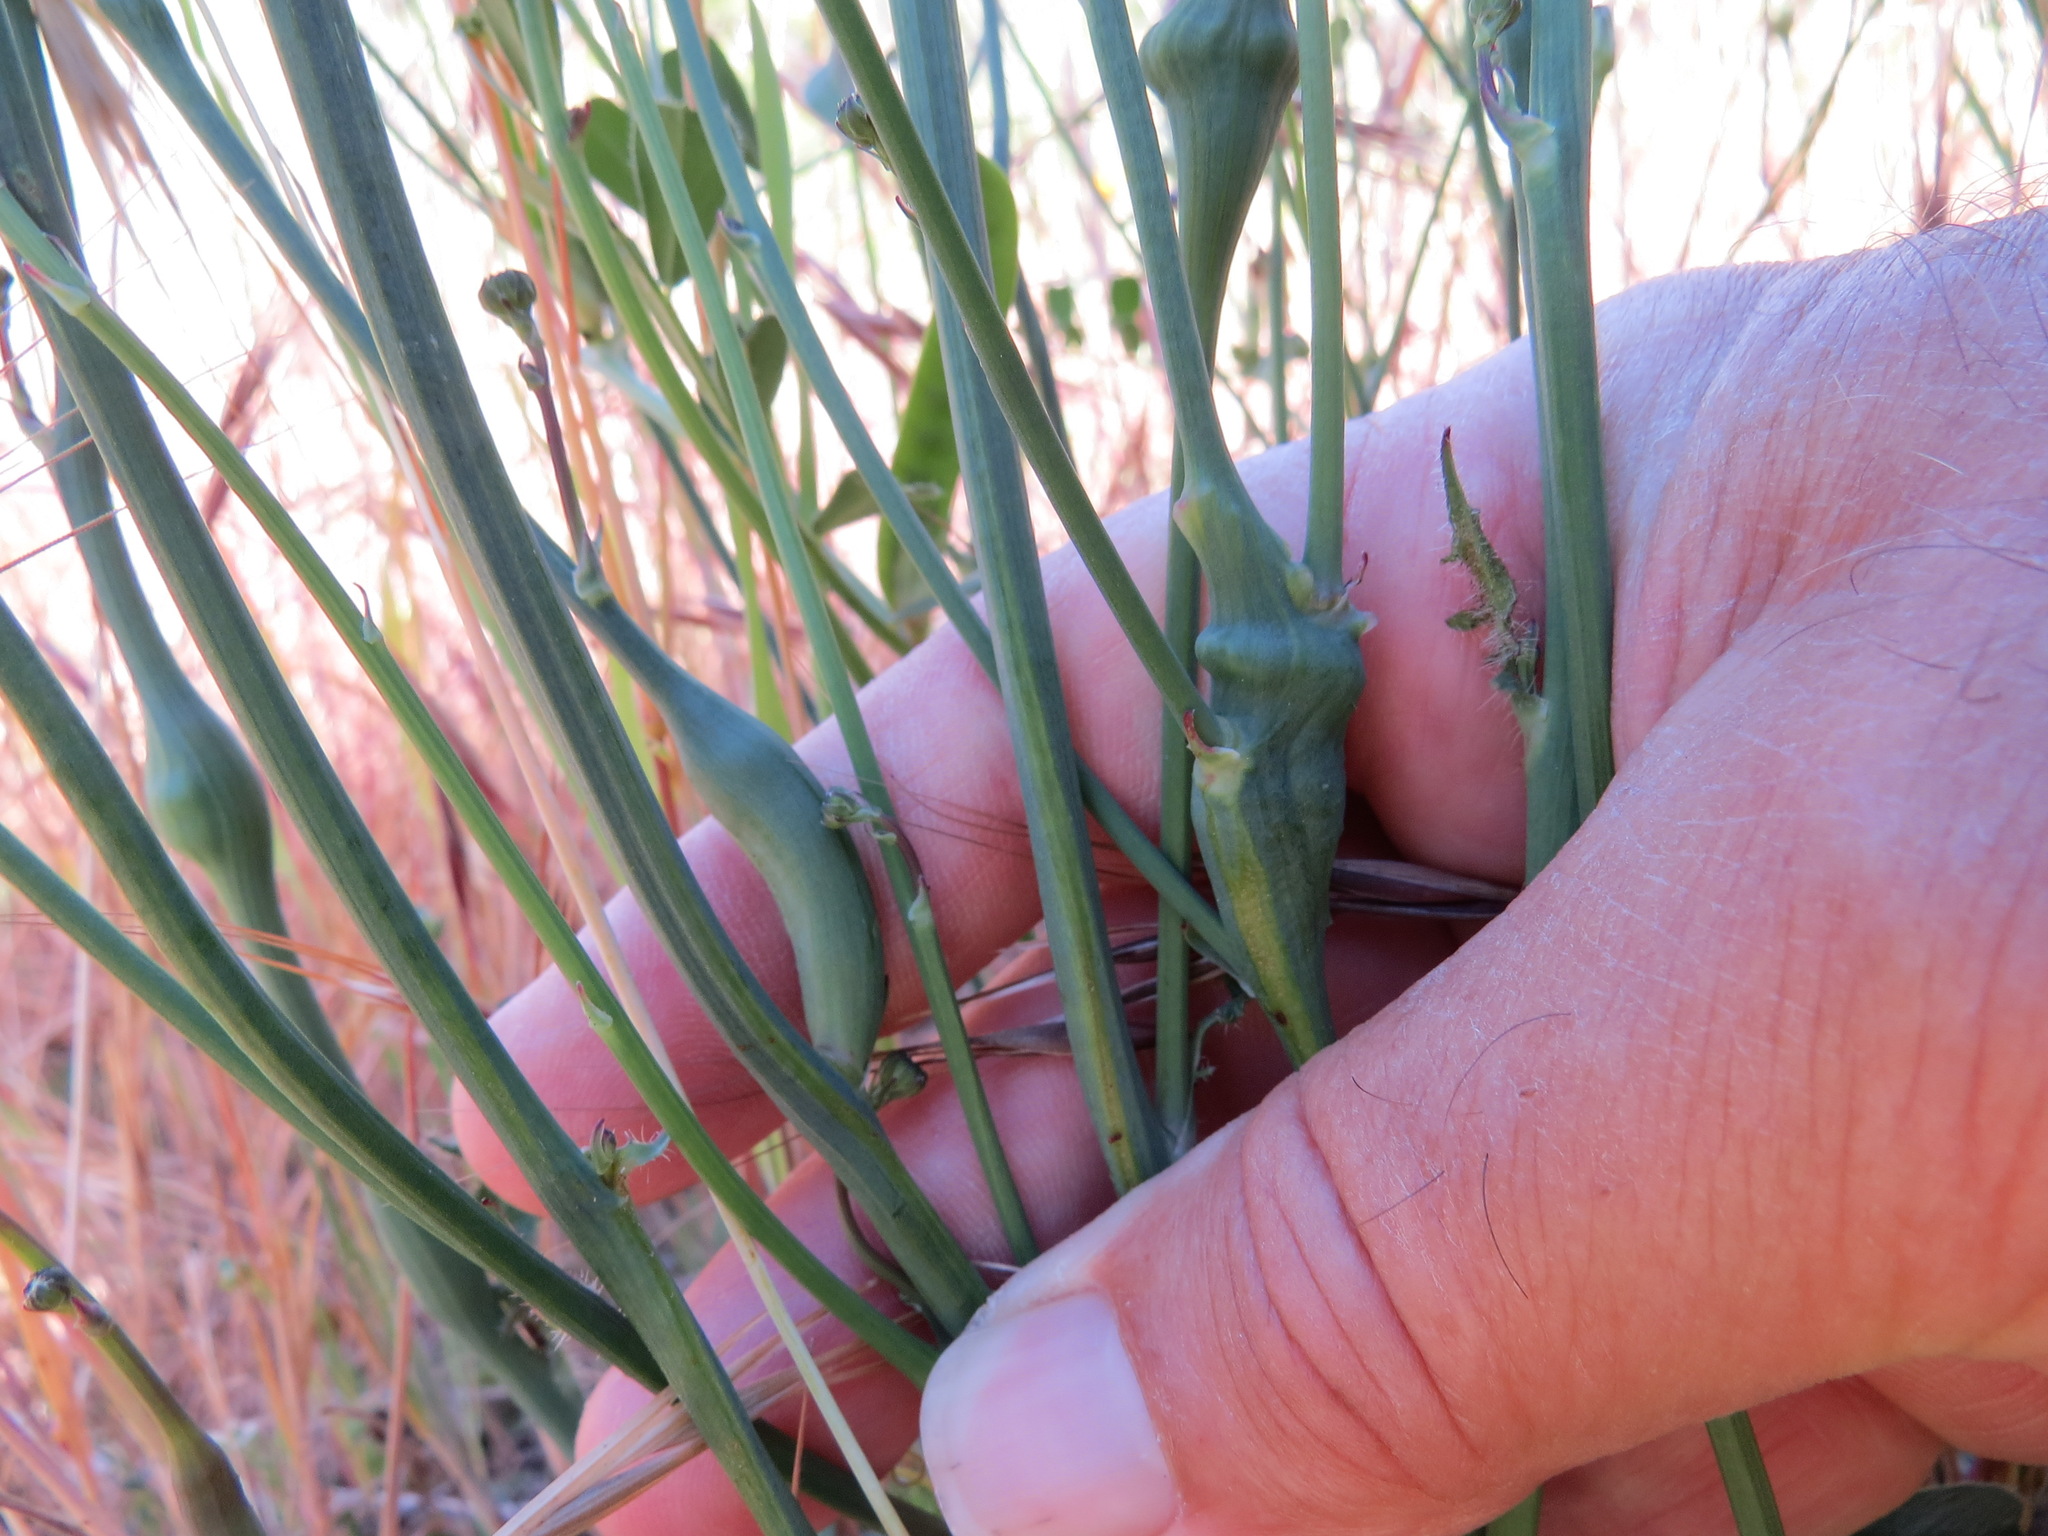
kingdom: Animalia
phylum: Arthropoda
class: Insecta
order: Hymenoptera
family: Cynipidae
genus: Phanacis
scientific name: Phanacis hypochoeridis
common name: Gall wasp
